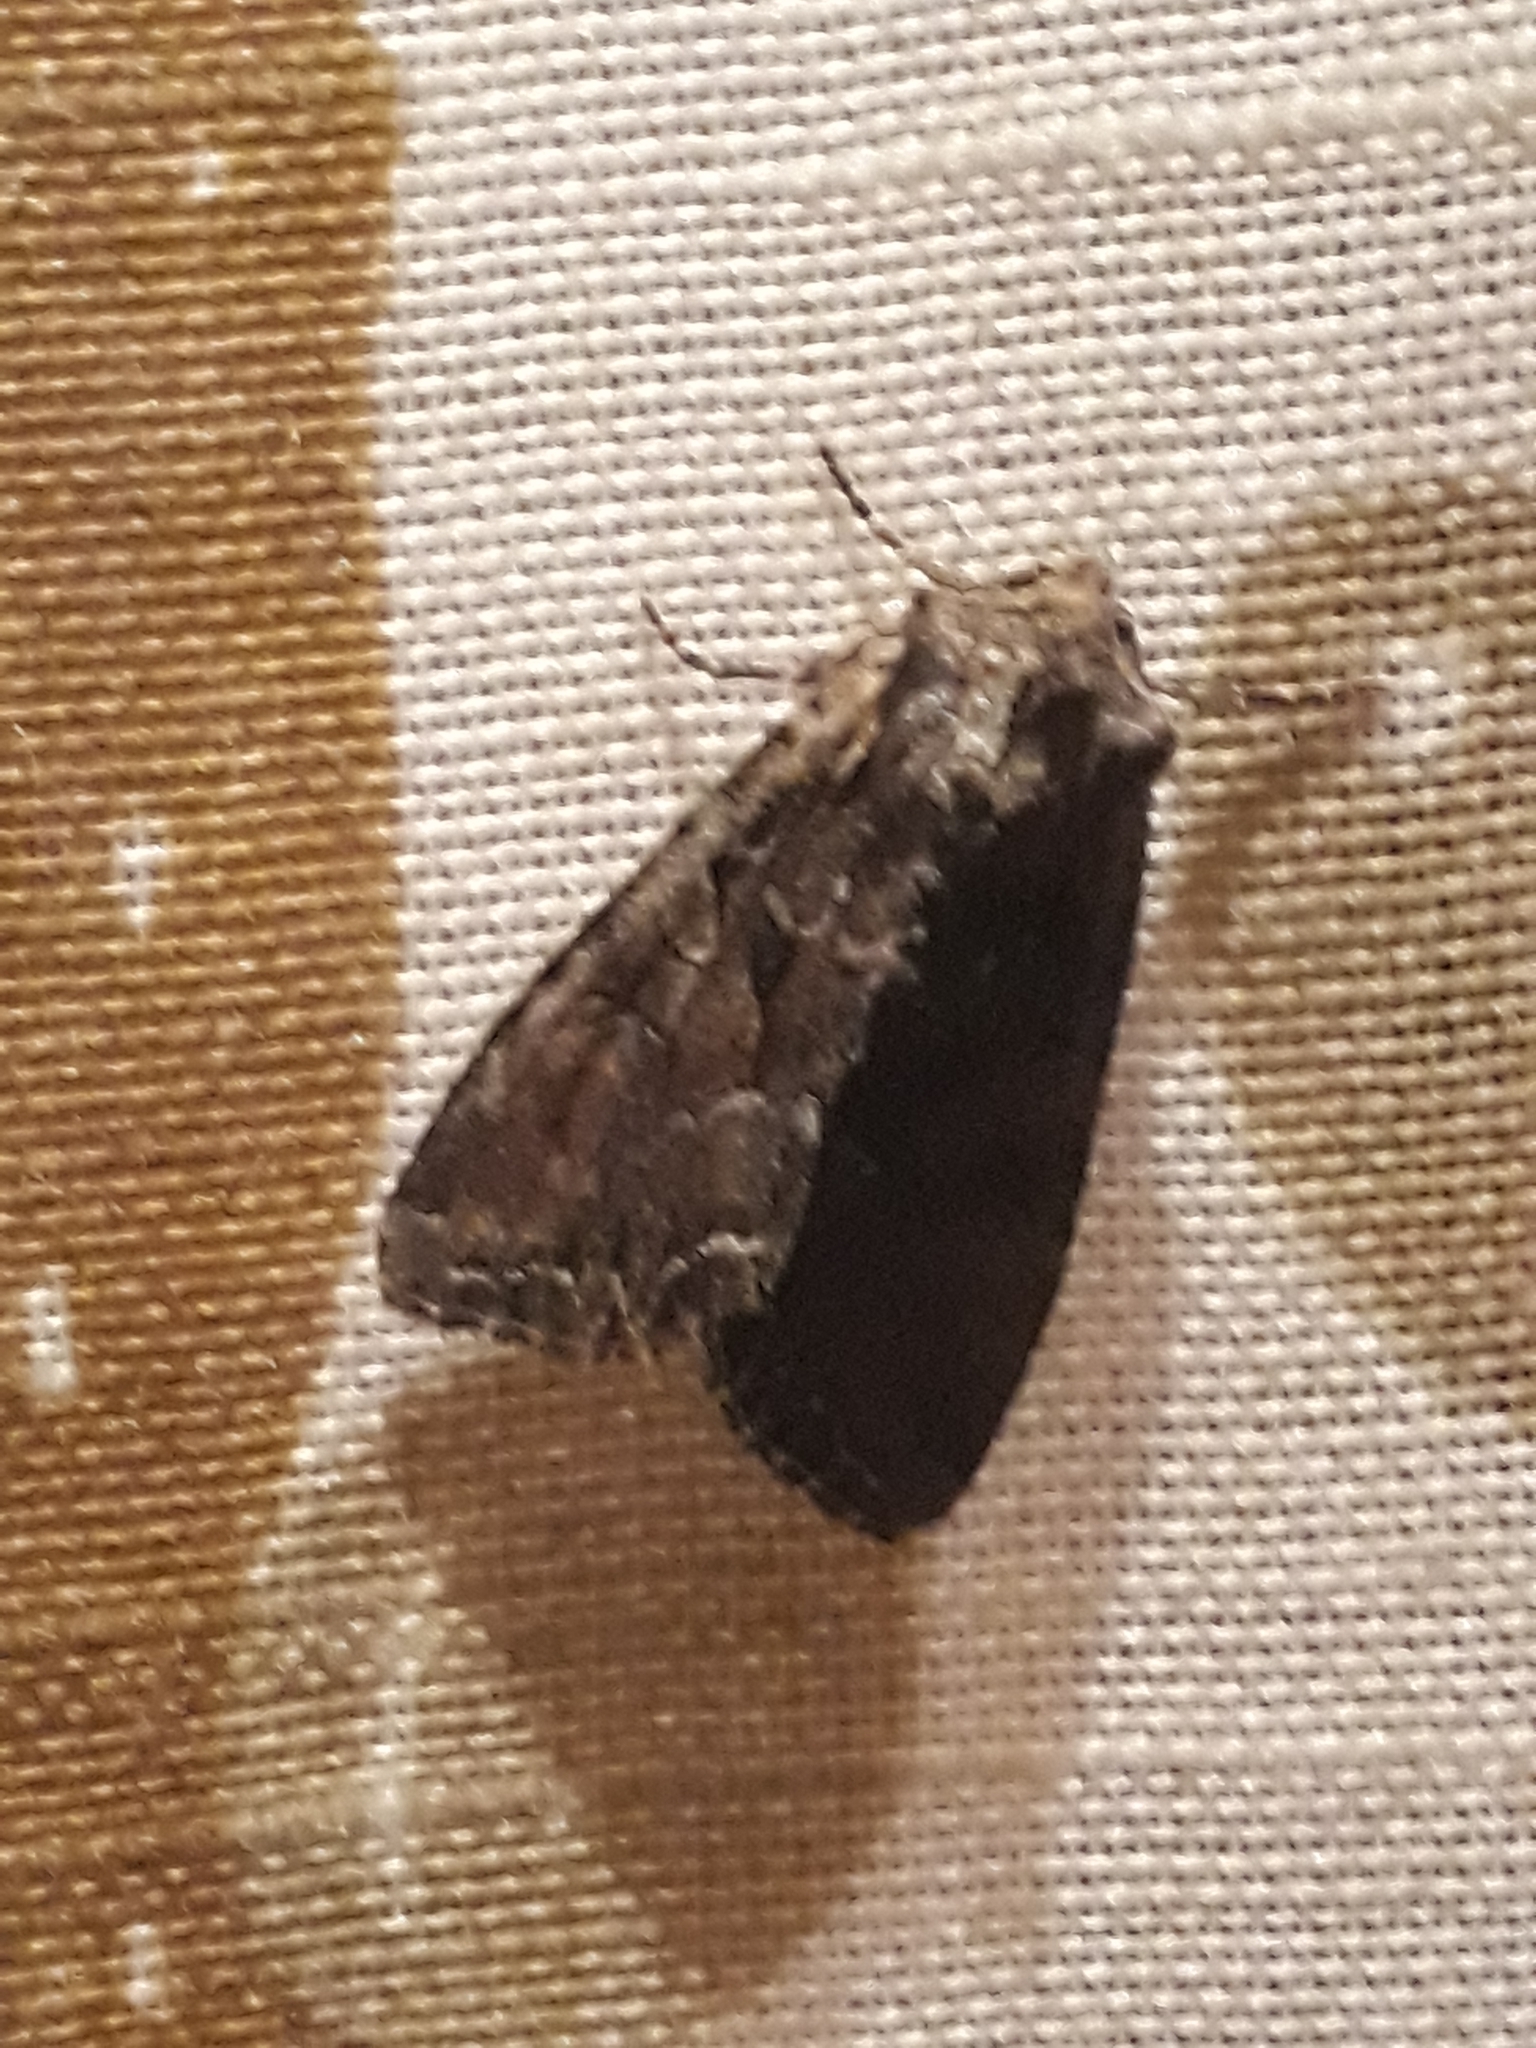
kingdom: Animalia
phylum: Arthropoda
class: Insecta
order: Lepidoptera
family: Noctuidae
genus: Lacanobia
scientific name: Lacanobia suasa
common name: Dog's tooth
